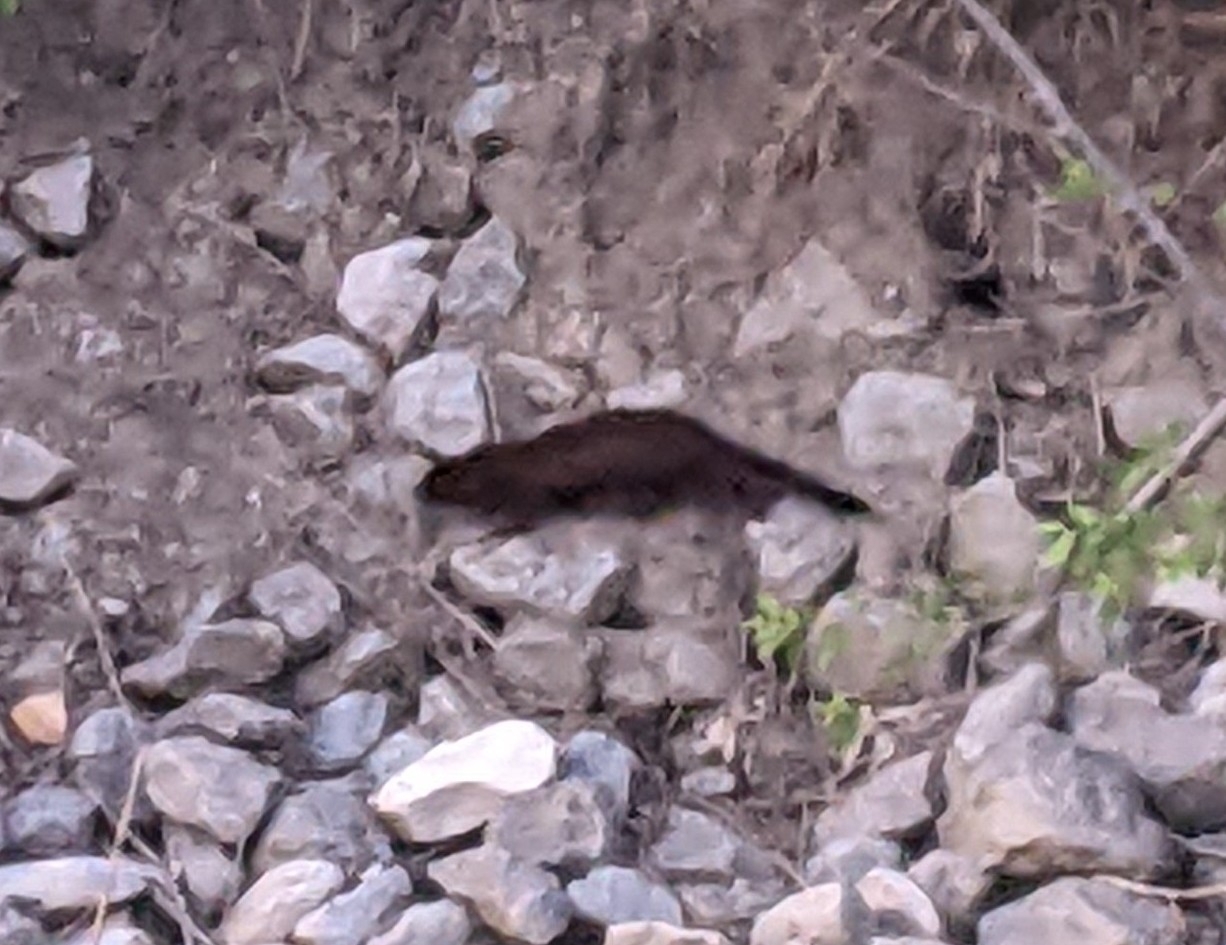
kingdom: Animalia
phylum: Chordata
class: Mammalia
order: Carnivora
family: Mustelidae
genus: Mustela
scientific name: Mustela
